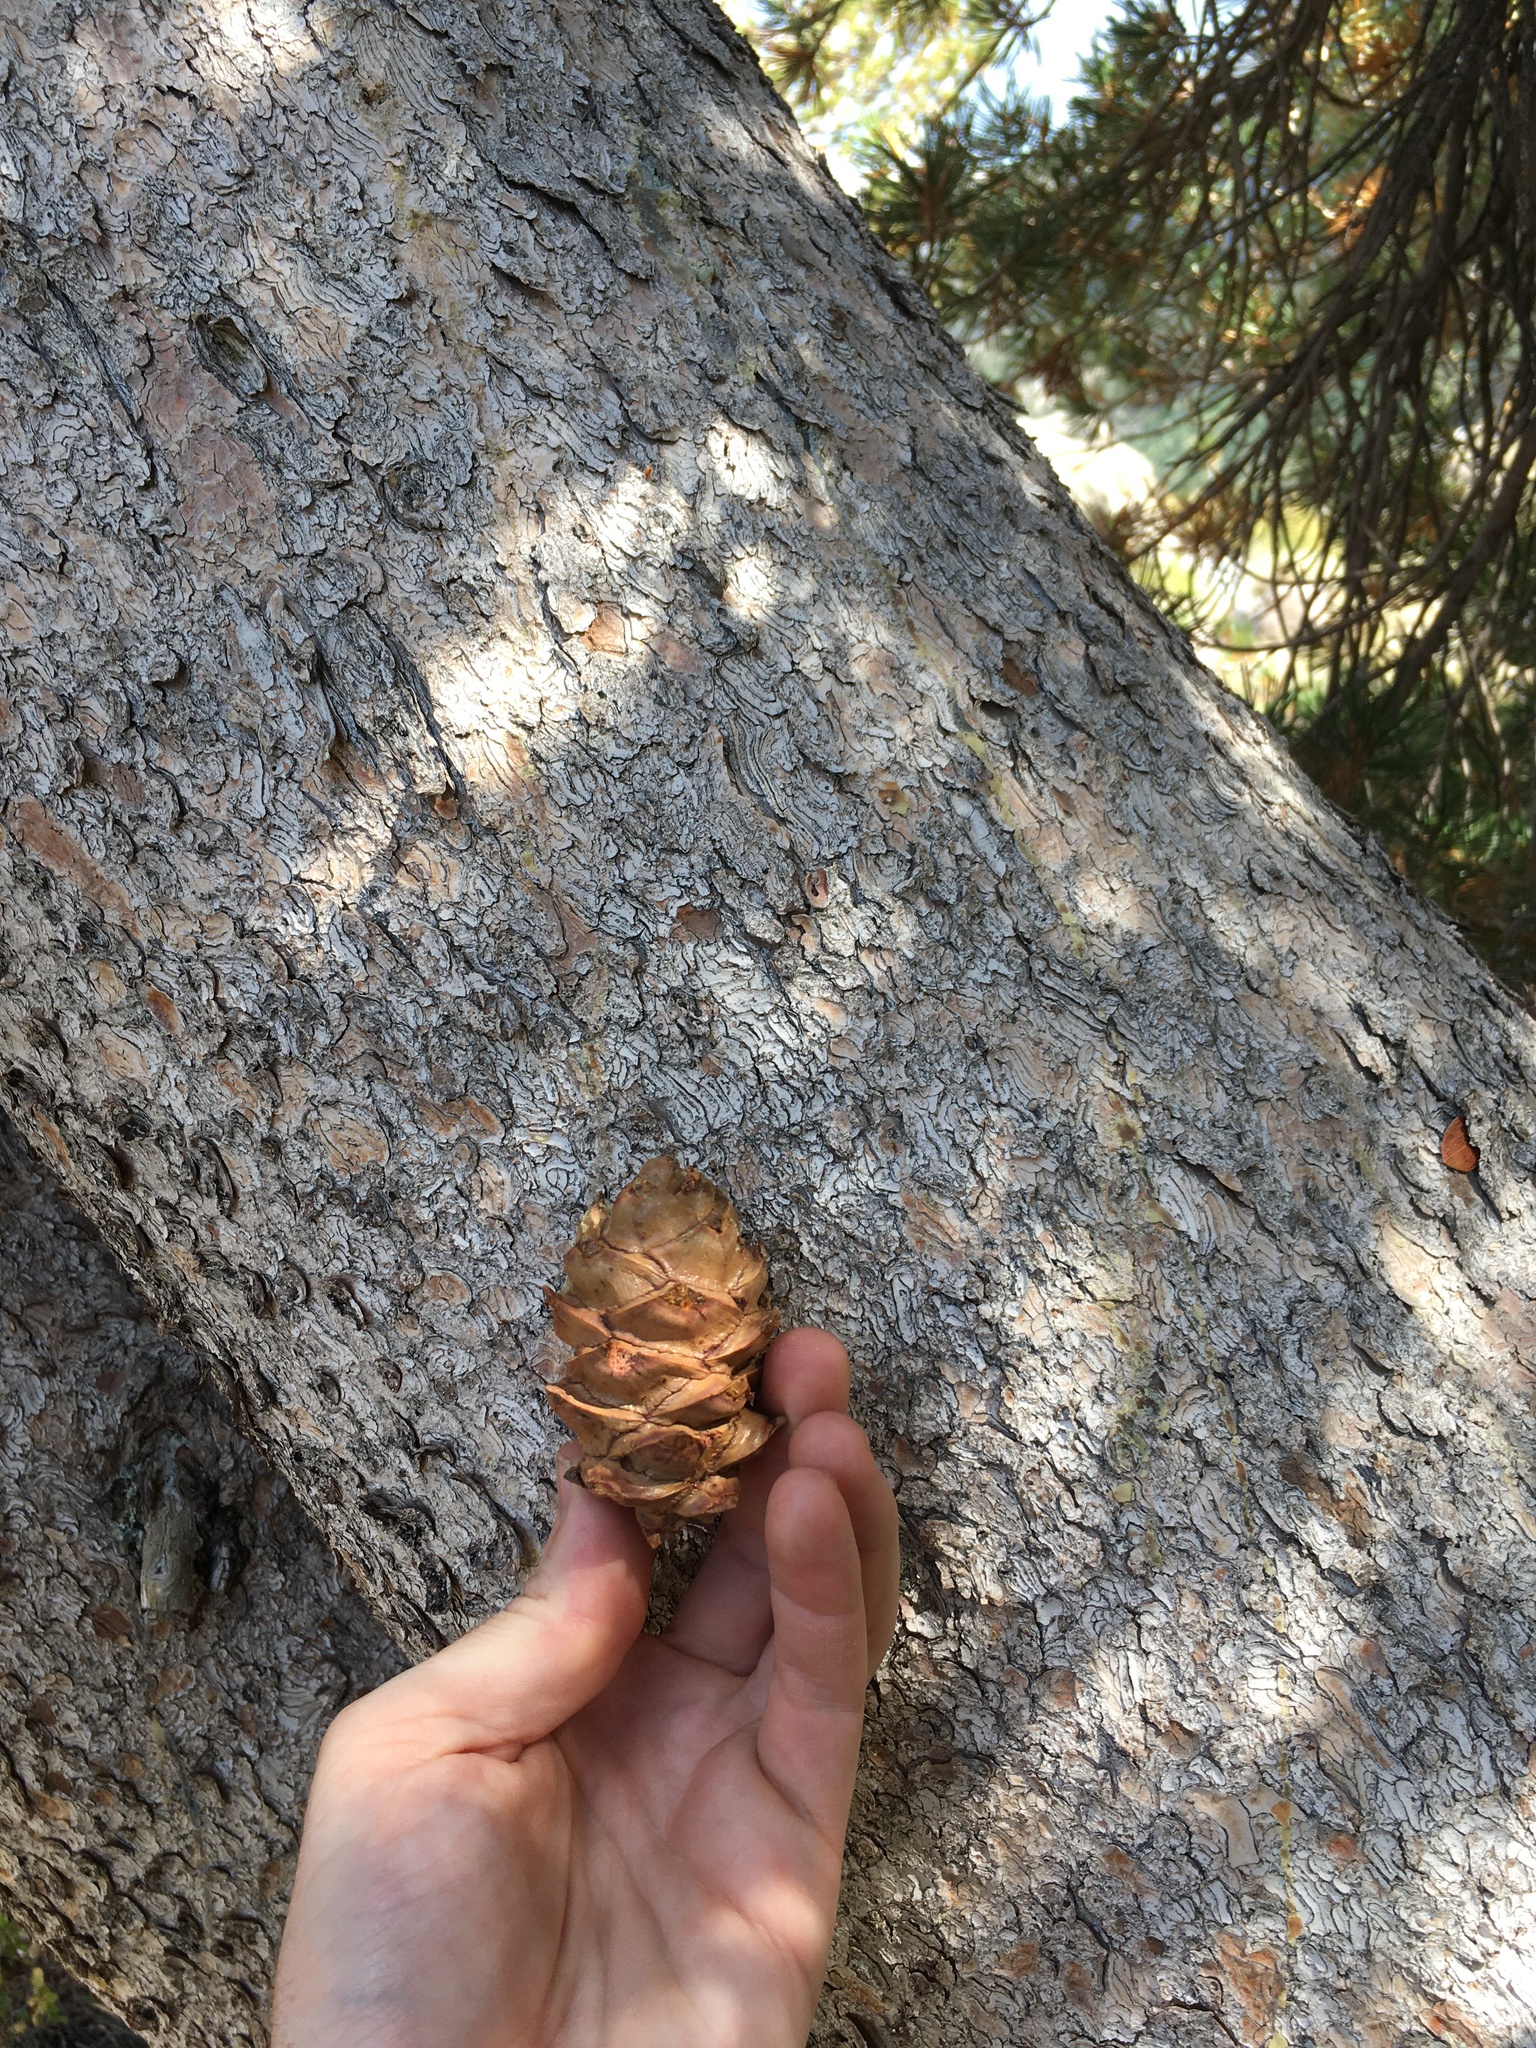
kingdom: Plantae
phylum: Tracheophyta
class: Pinopsida
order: Pinales
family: Pinaceae
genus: Pinus
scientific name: Pinus albicaulis
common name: Whitebark pine
